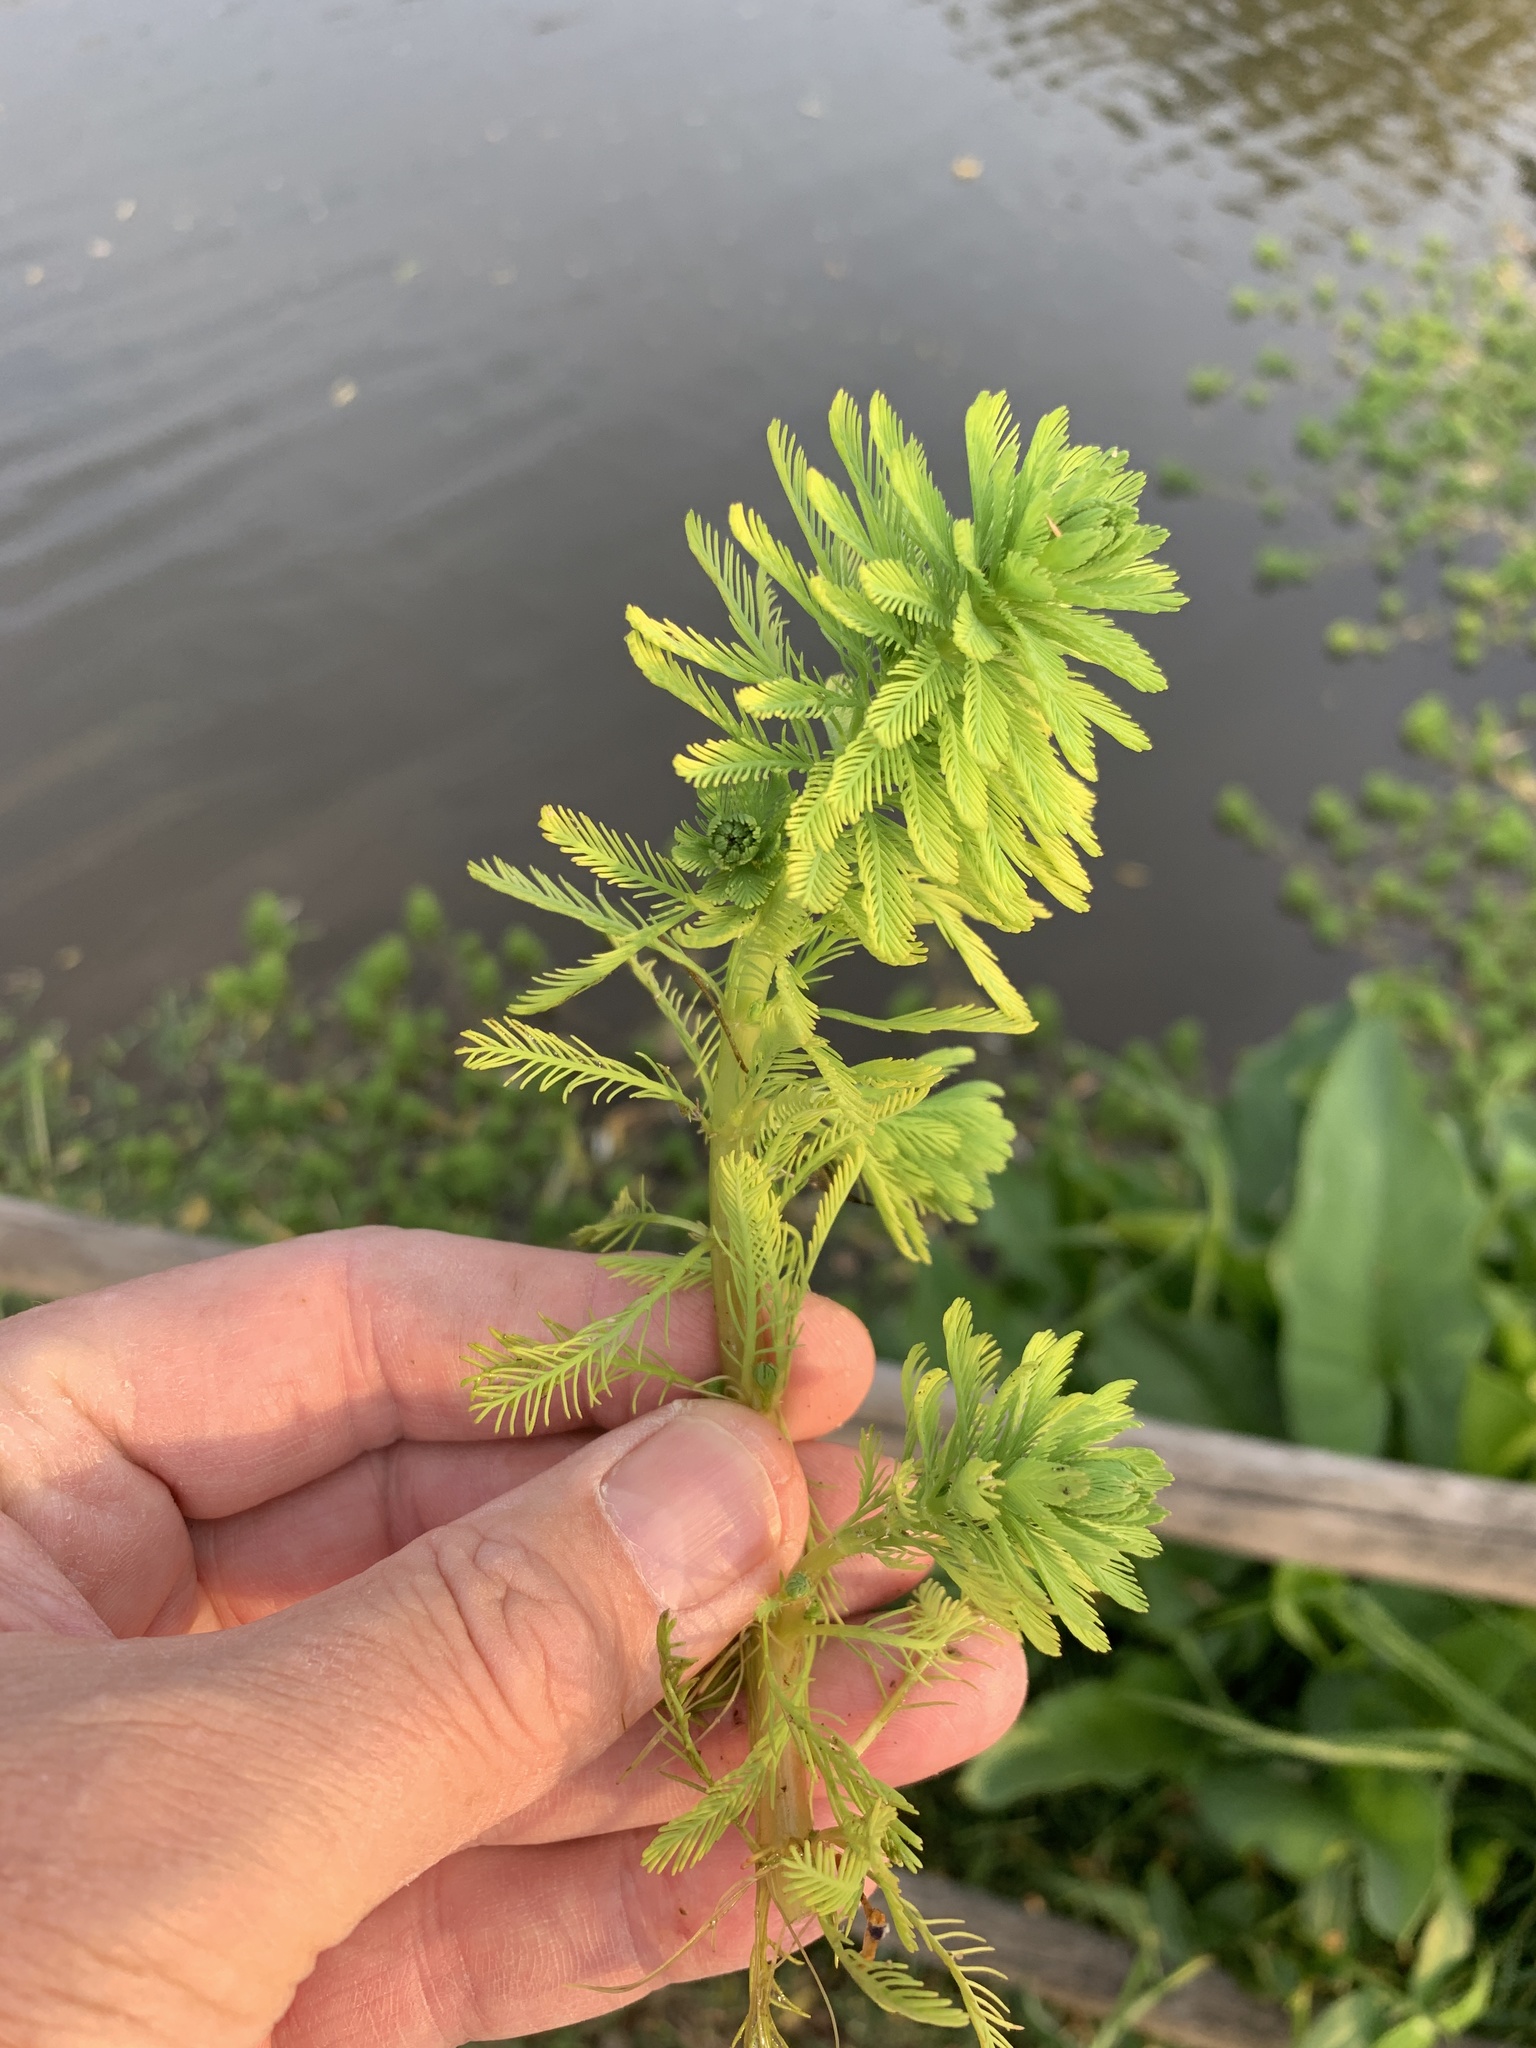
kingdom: Plantae
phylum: Tracheophyta
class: Magnoliopsida
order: Saxifragales
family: Haloragaceae
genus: Myriophyllum
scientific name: Myriophyllum aquaticum
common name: Parrot's feather
